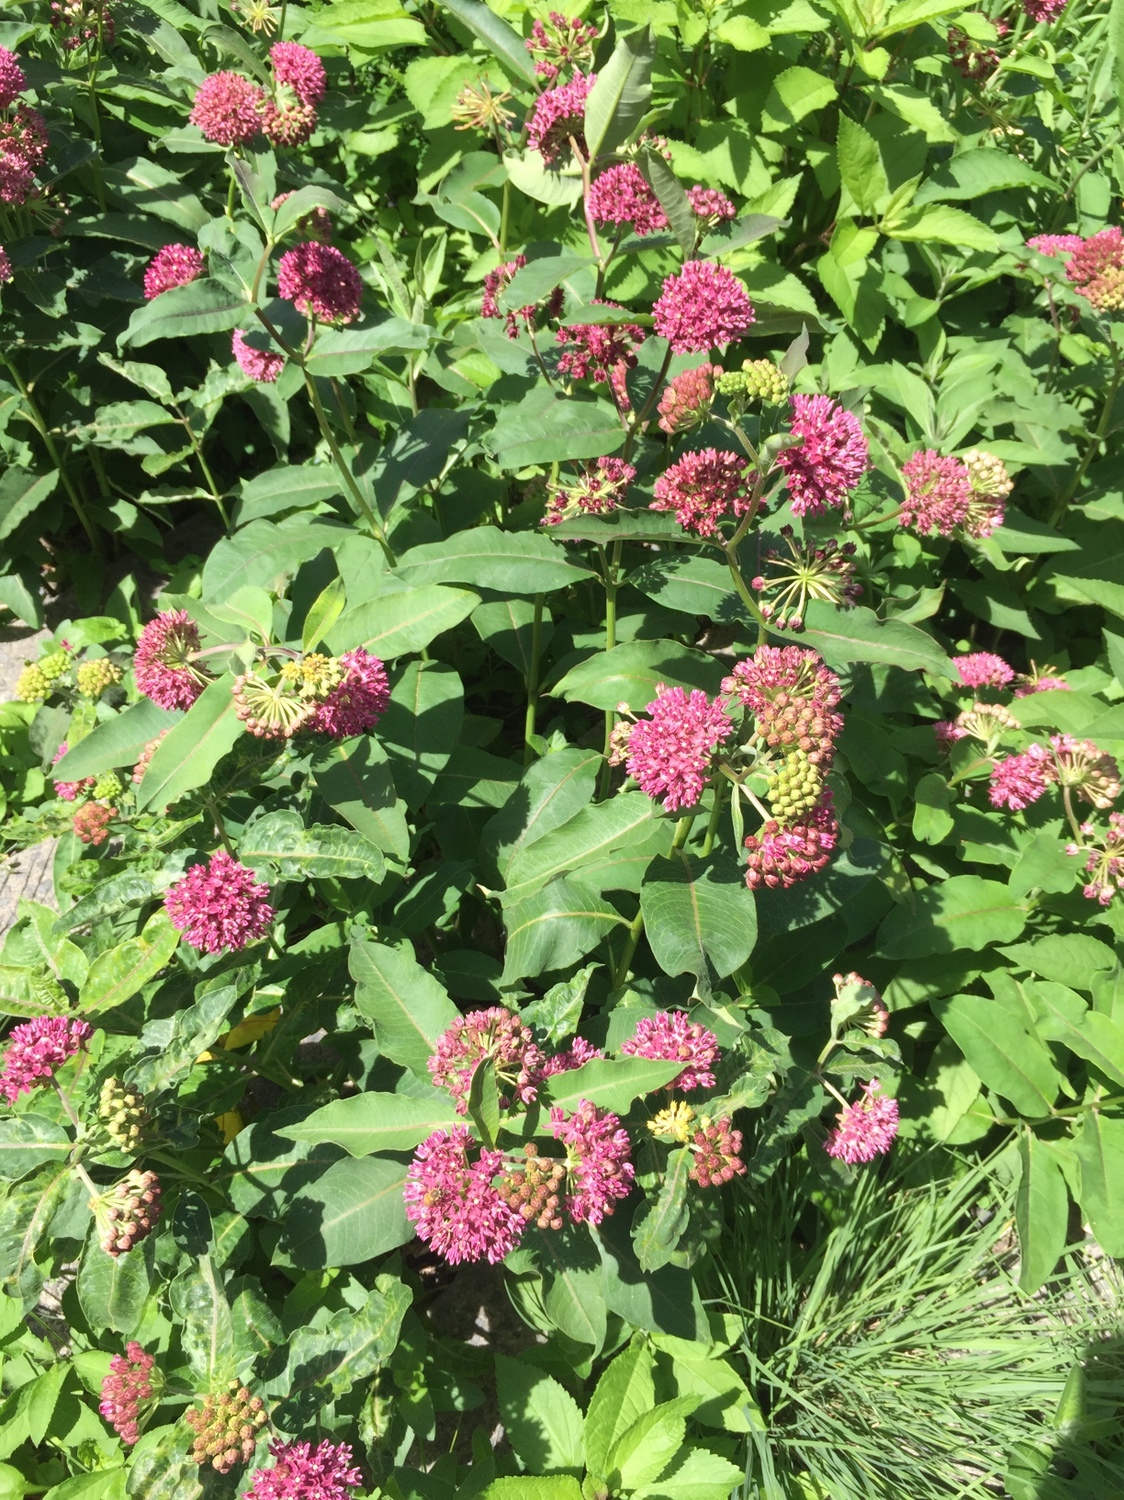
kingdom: Plantae
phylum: Tracheophyta
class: Magnoliopsida
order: Gentianales
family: Apocynaceae
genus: Asclepias
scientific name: Asclepias purpurascens
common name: Purple milkweed
